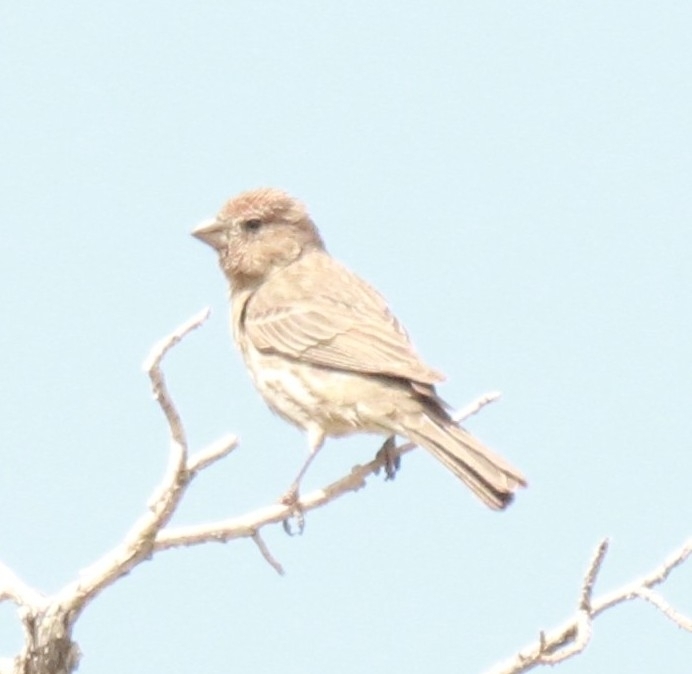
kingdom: Animalia
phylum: Chordata
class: Aves
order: Passeriformes
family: Fringillidae
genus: Haemorhous
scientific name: Haemorhous mexicanus
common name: House finch
